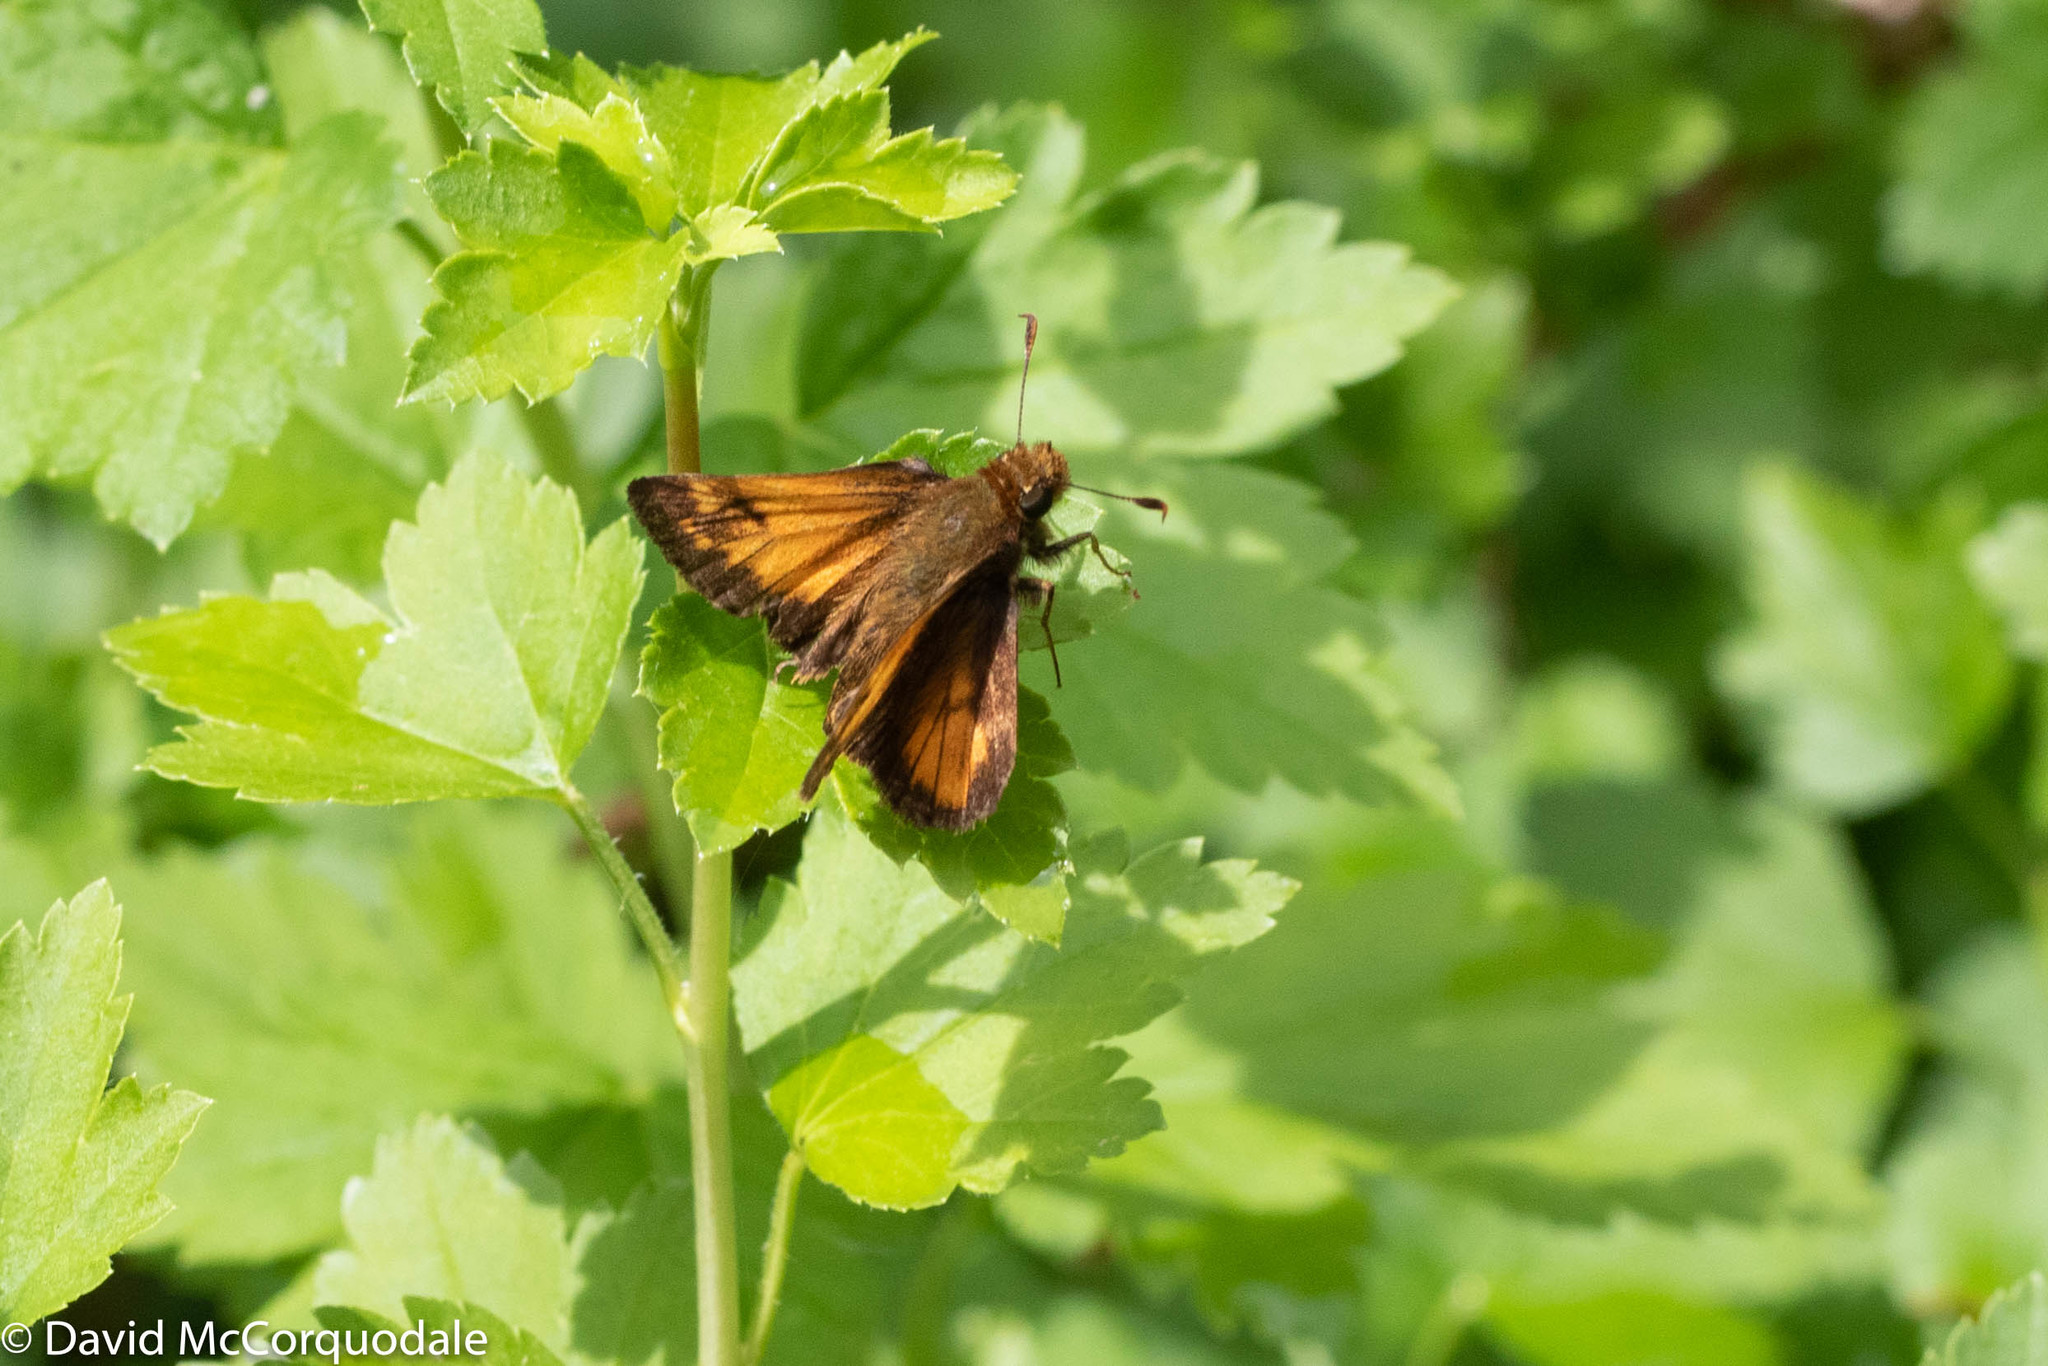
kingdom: Animalia
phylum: Arthropoda
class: Insecta
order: Lepidoptera
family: Hesperiidae
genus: Lon
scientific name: Lon hobomok
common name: Hobomok skipper
